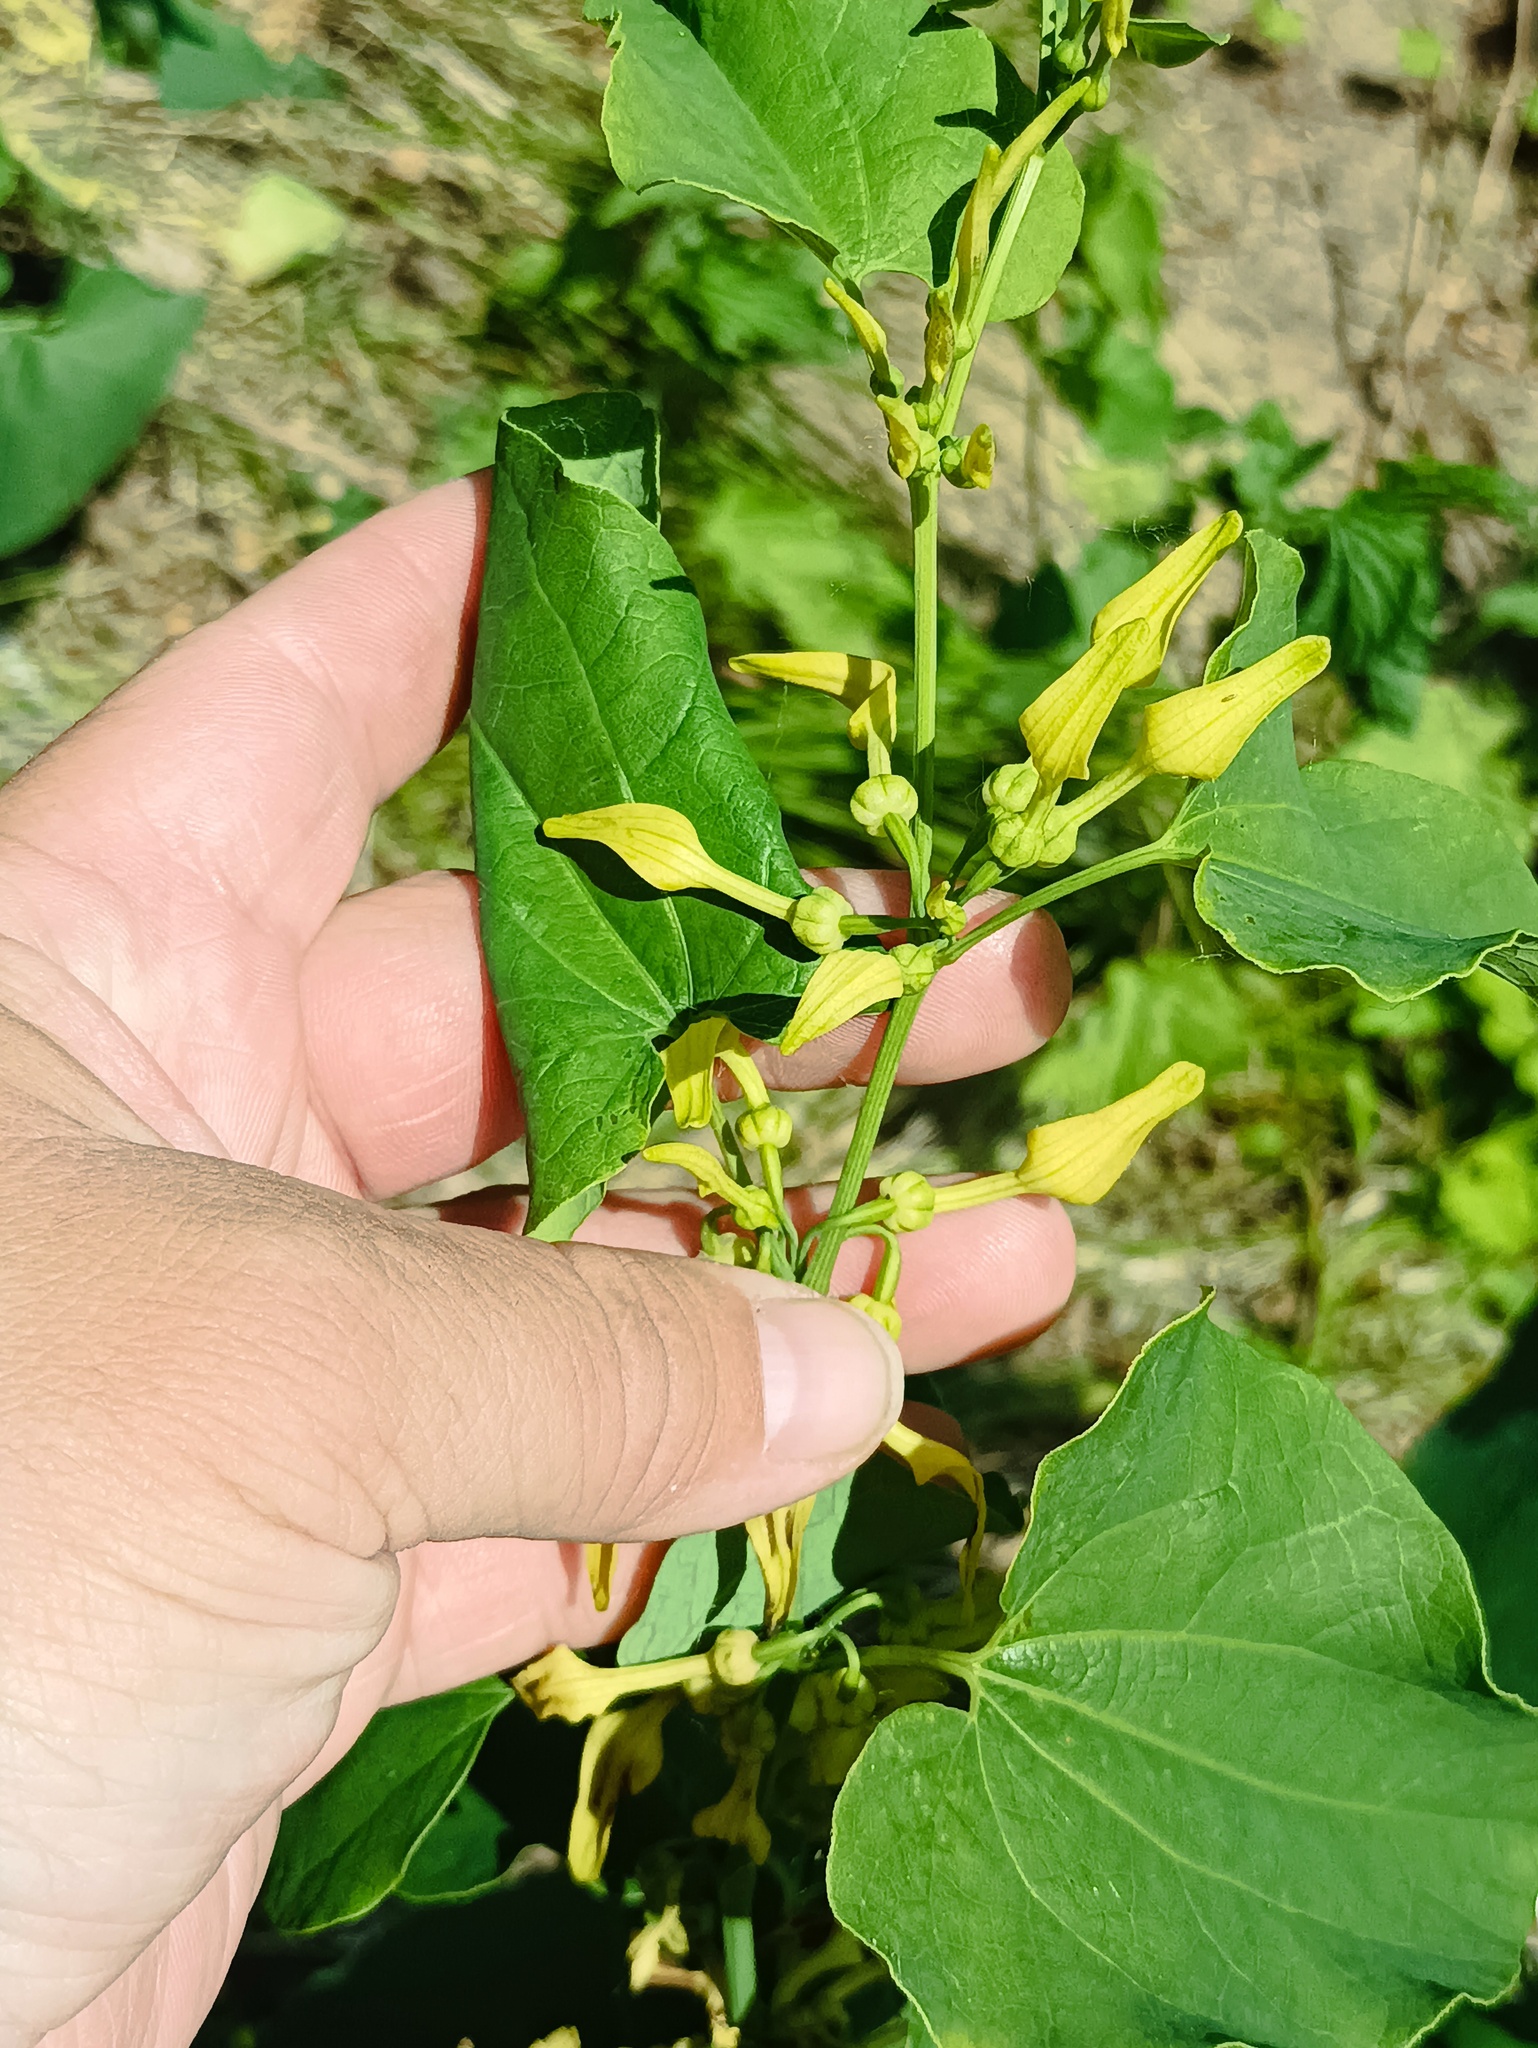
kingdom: Plantae
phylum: Tracheophyta
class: Magnoliopsida
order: Piperales
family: Aristolochiaceae
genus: Aristolochia
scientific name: Aristolochia clematitis
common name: Birthwort
